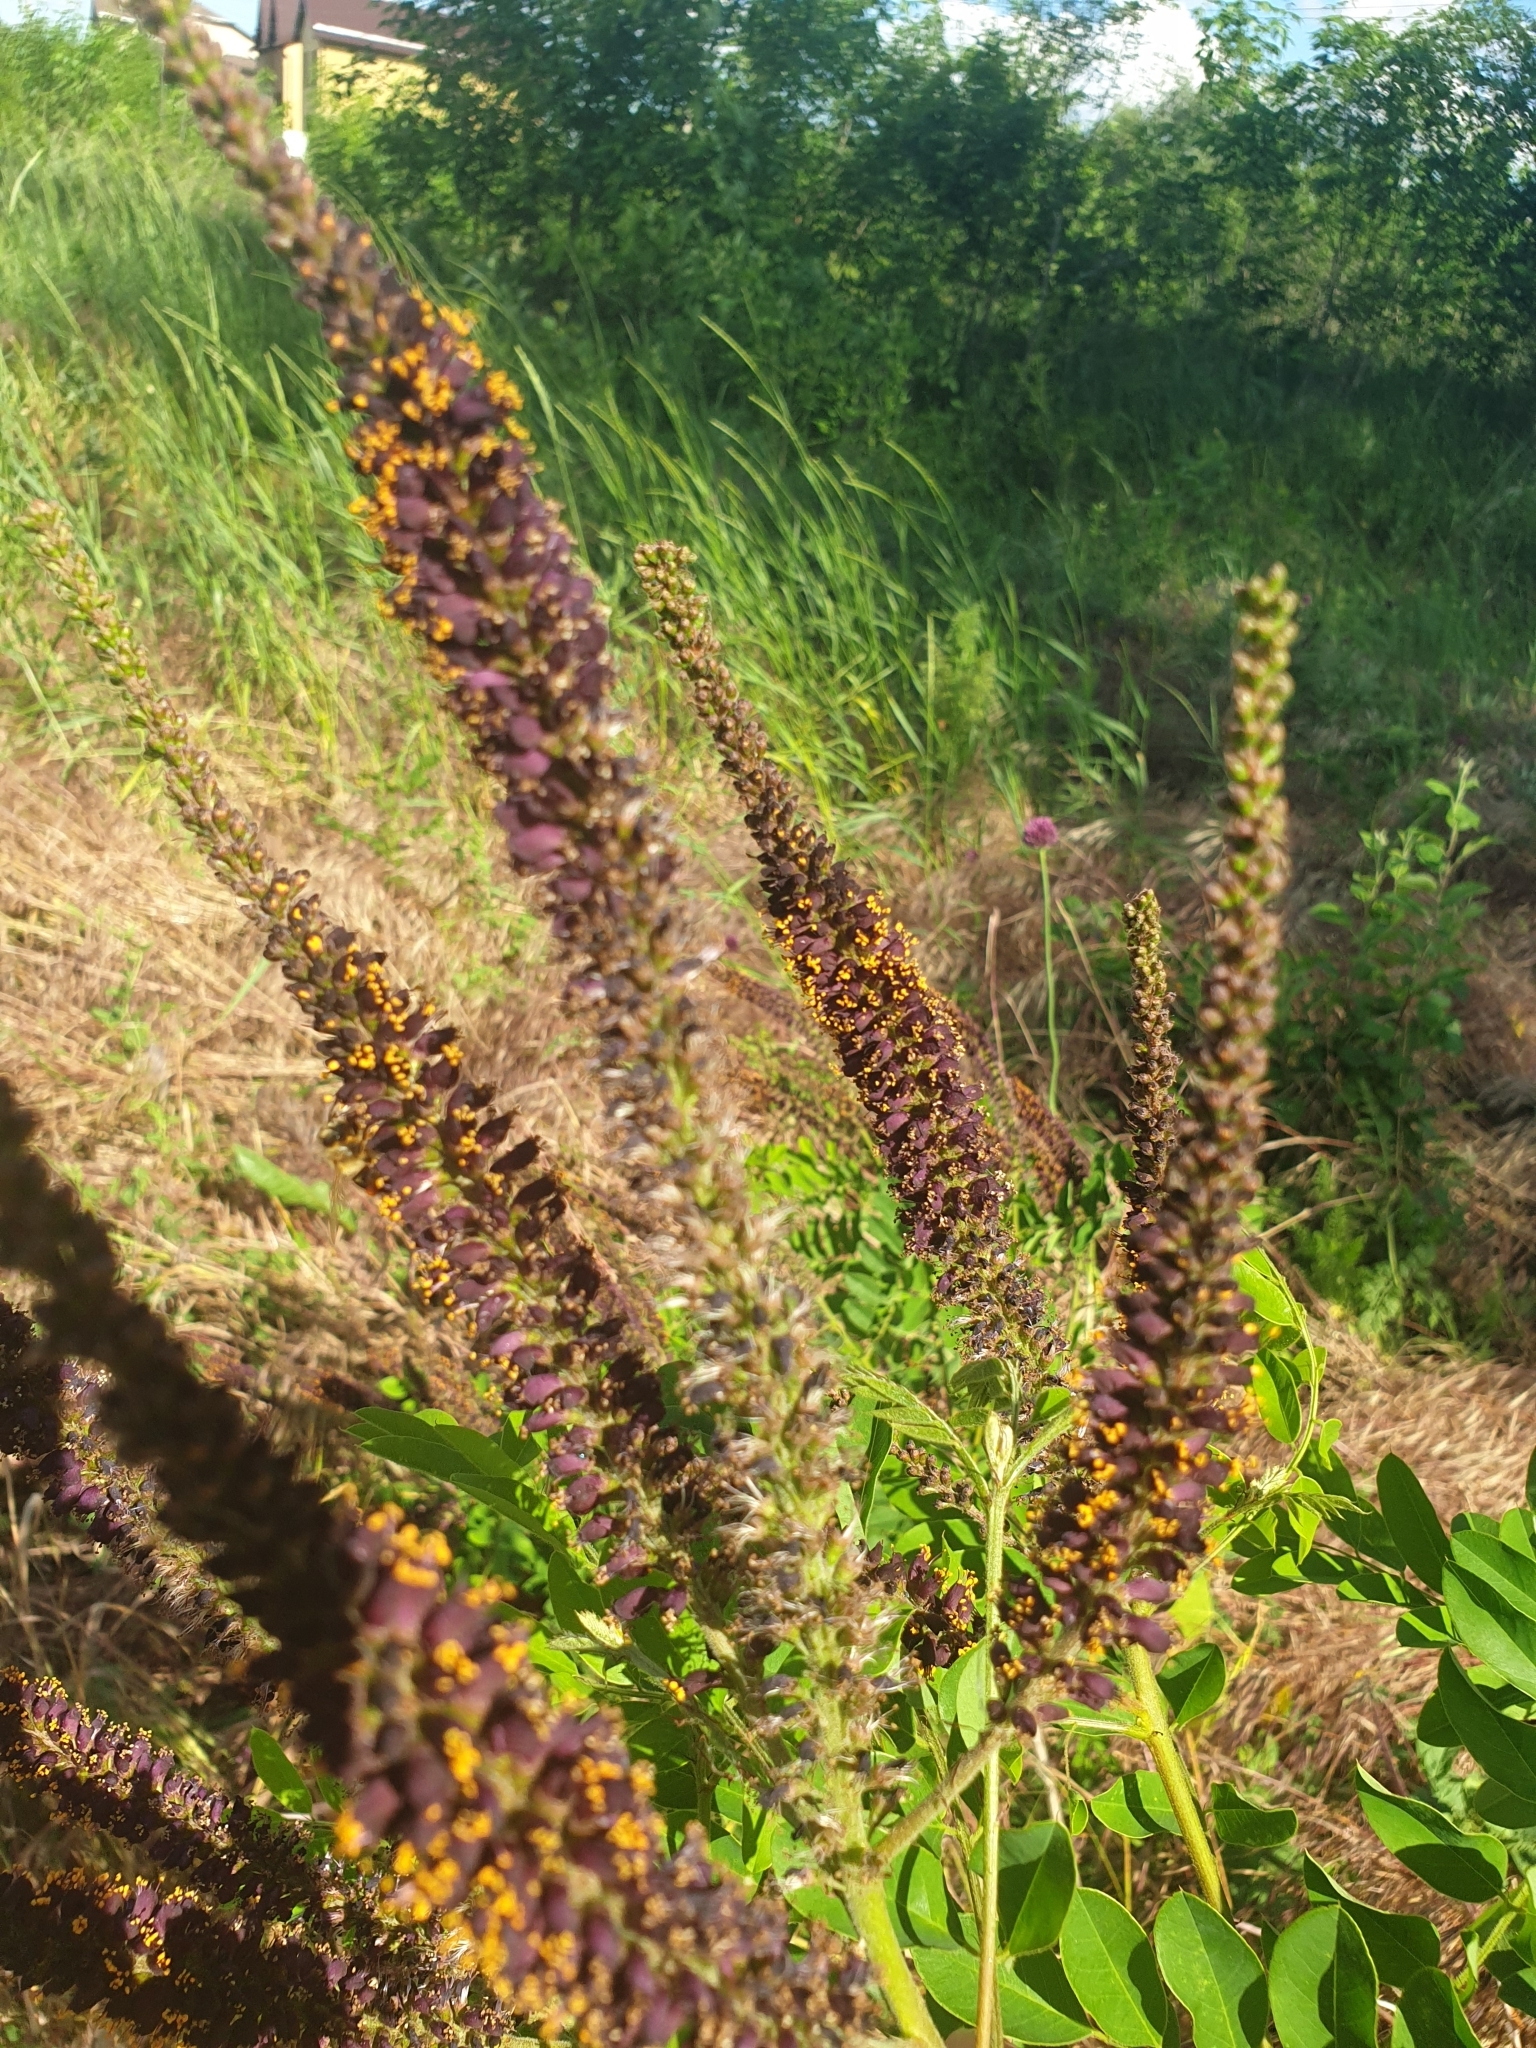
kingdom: Plantae
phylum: Tracheophyta
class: Magnoliopsida
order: Fabales
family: Fabaceae
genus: Amorpha
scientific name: Amorpha fruticosa
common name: False indigo
